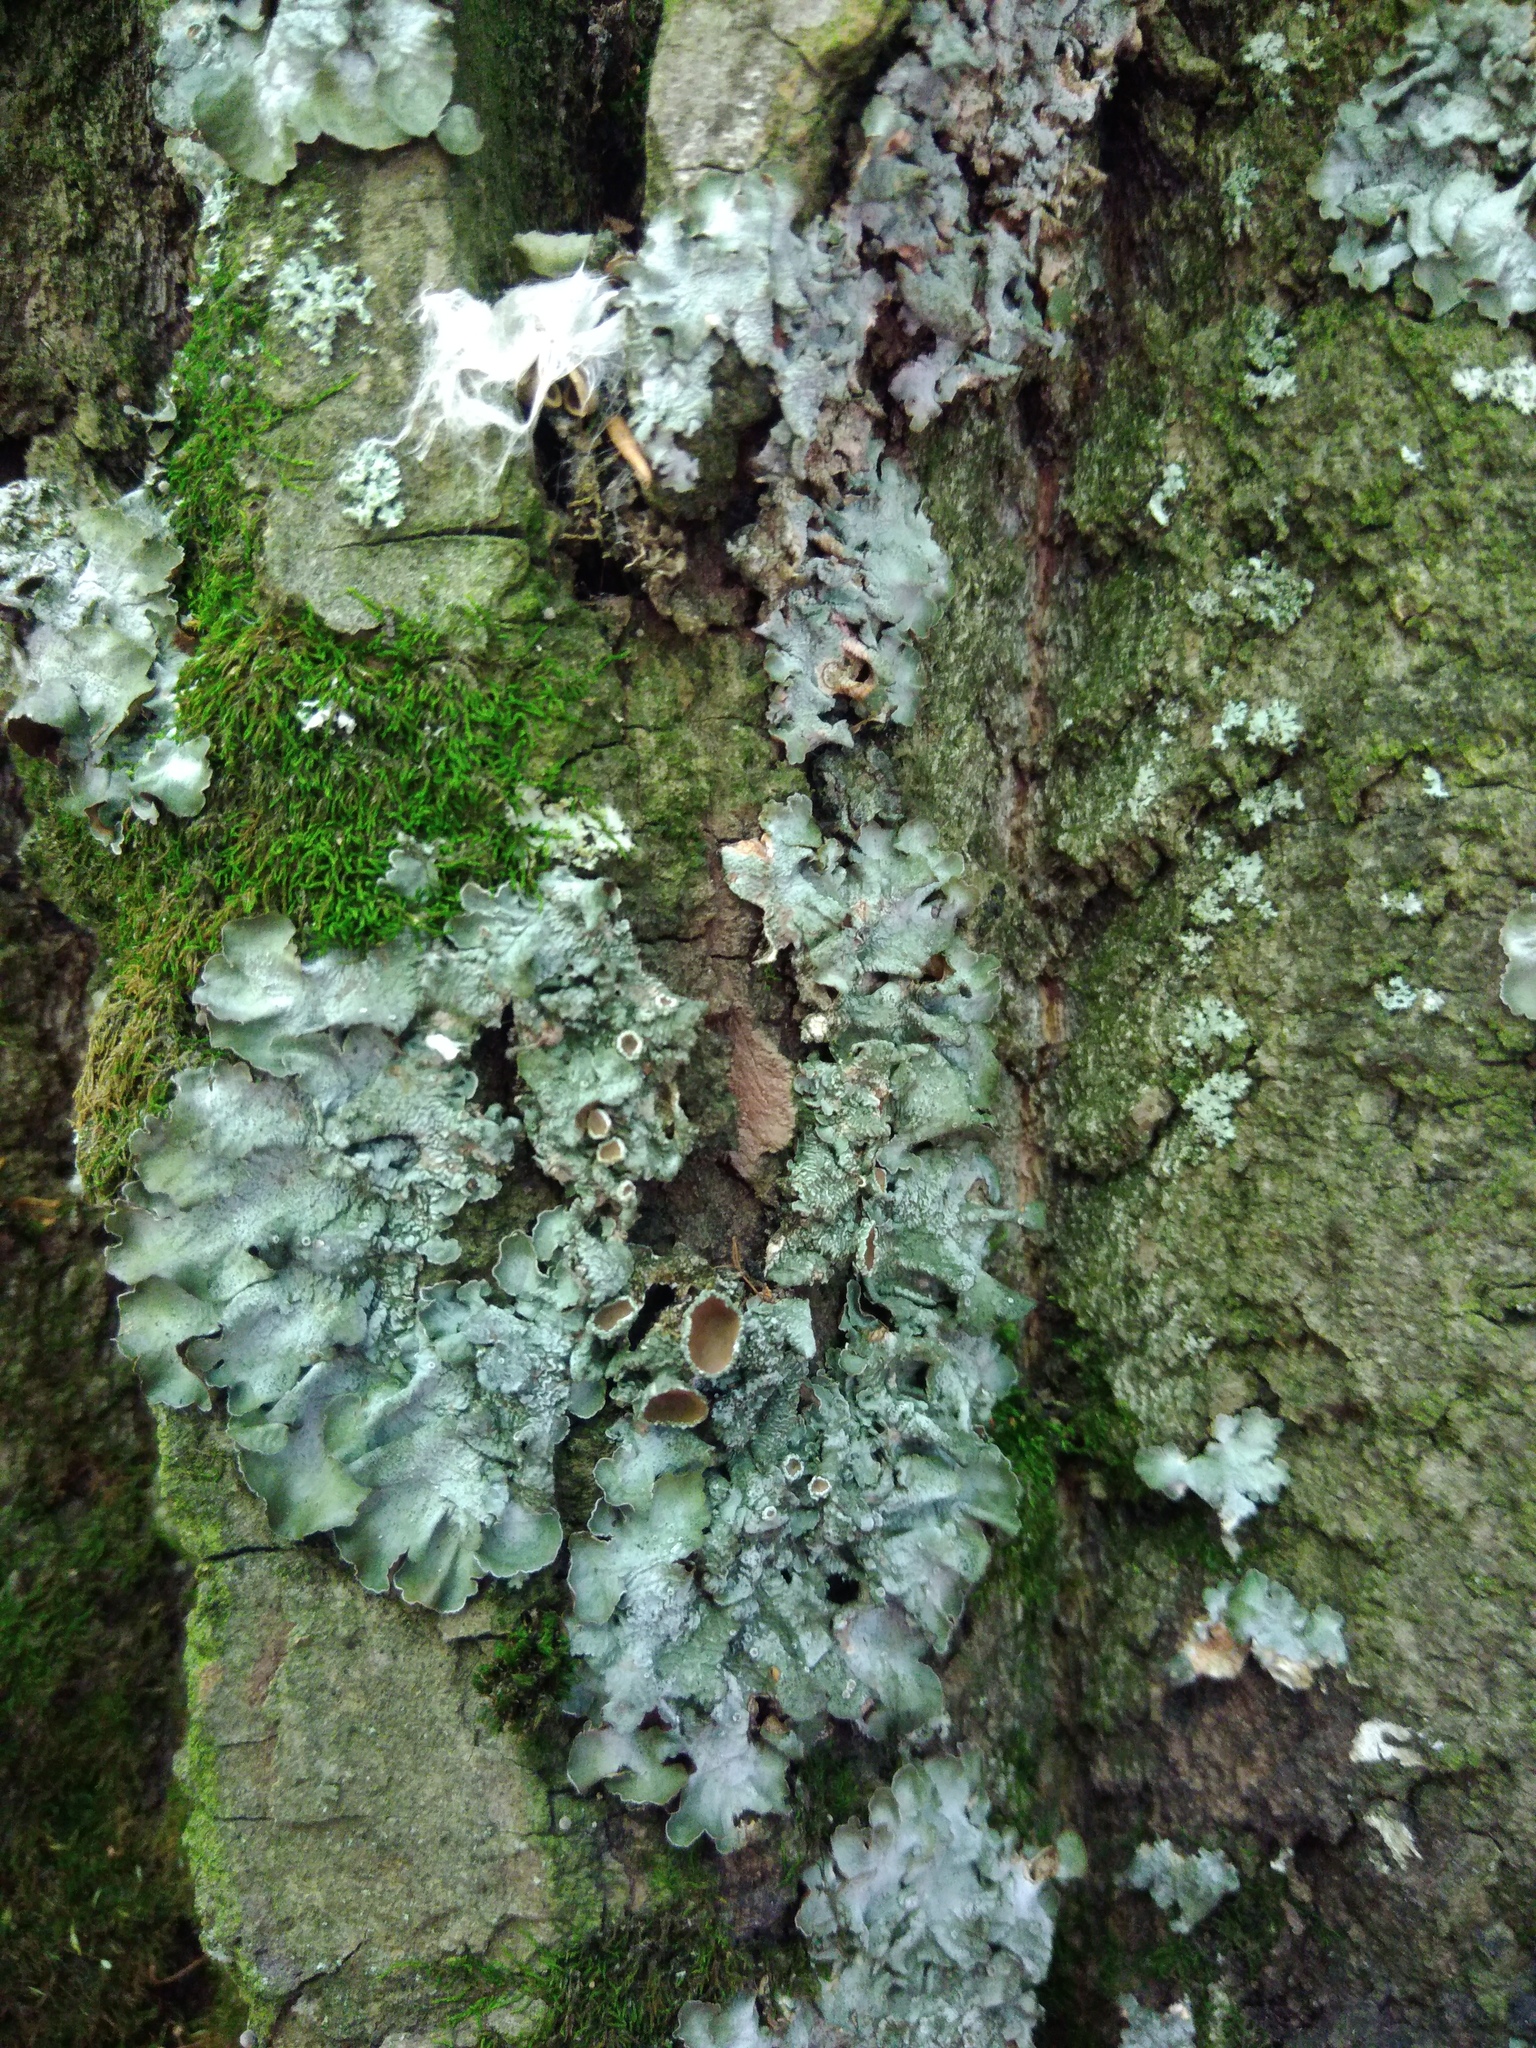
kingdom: Fungi
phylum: Ascomycota
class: Lecanoromycetes
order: Lecanorales
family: Parmeliaceae
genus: Pleurosticta
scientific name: Pleurosticta acetabulum
